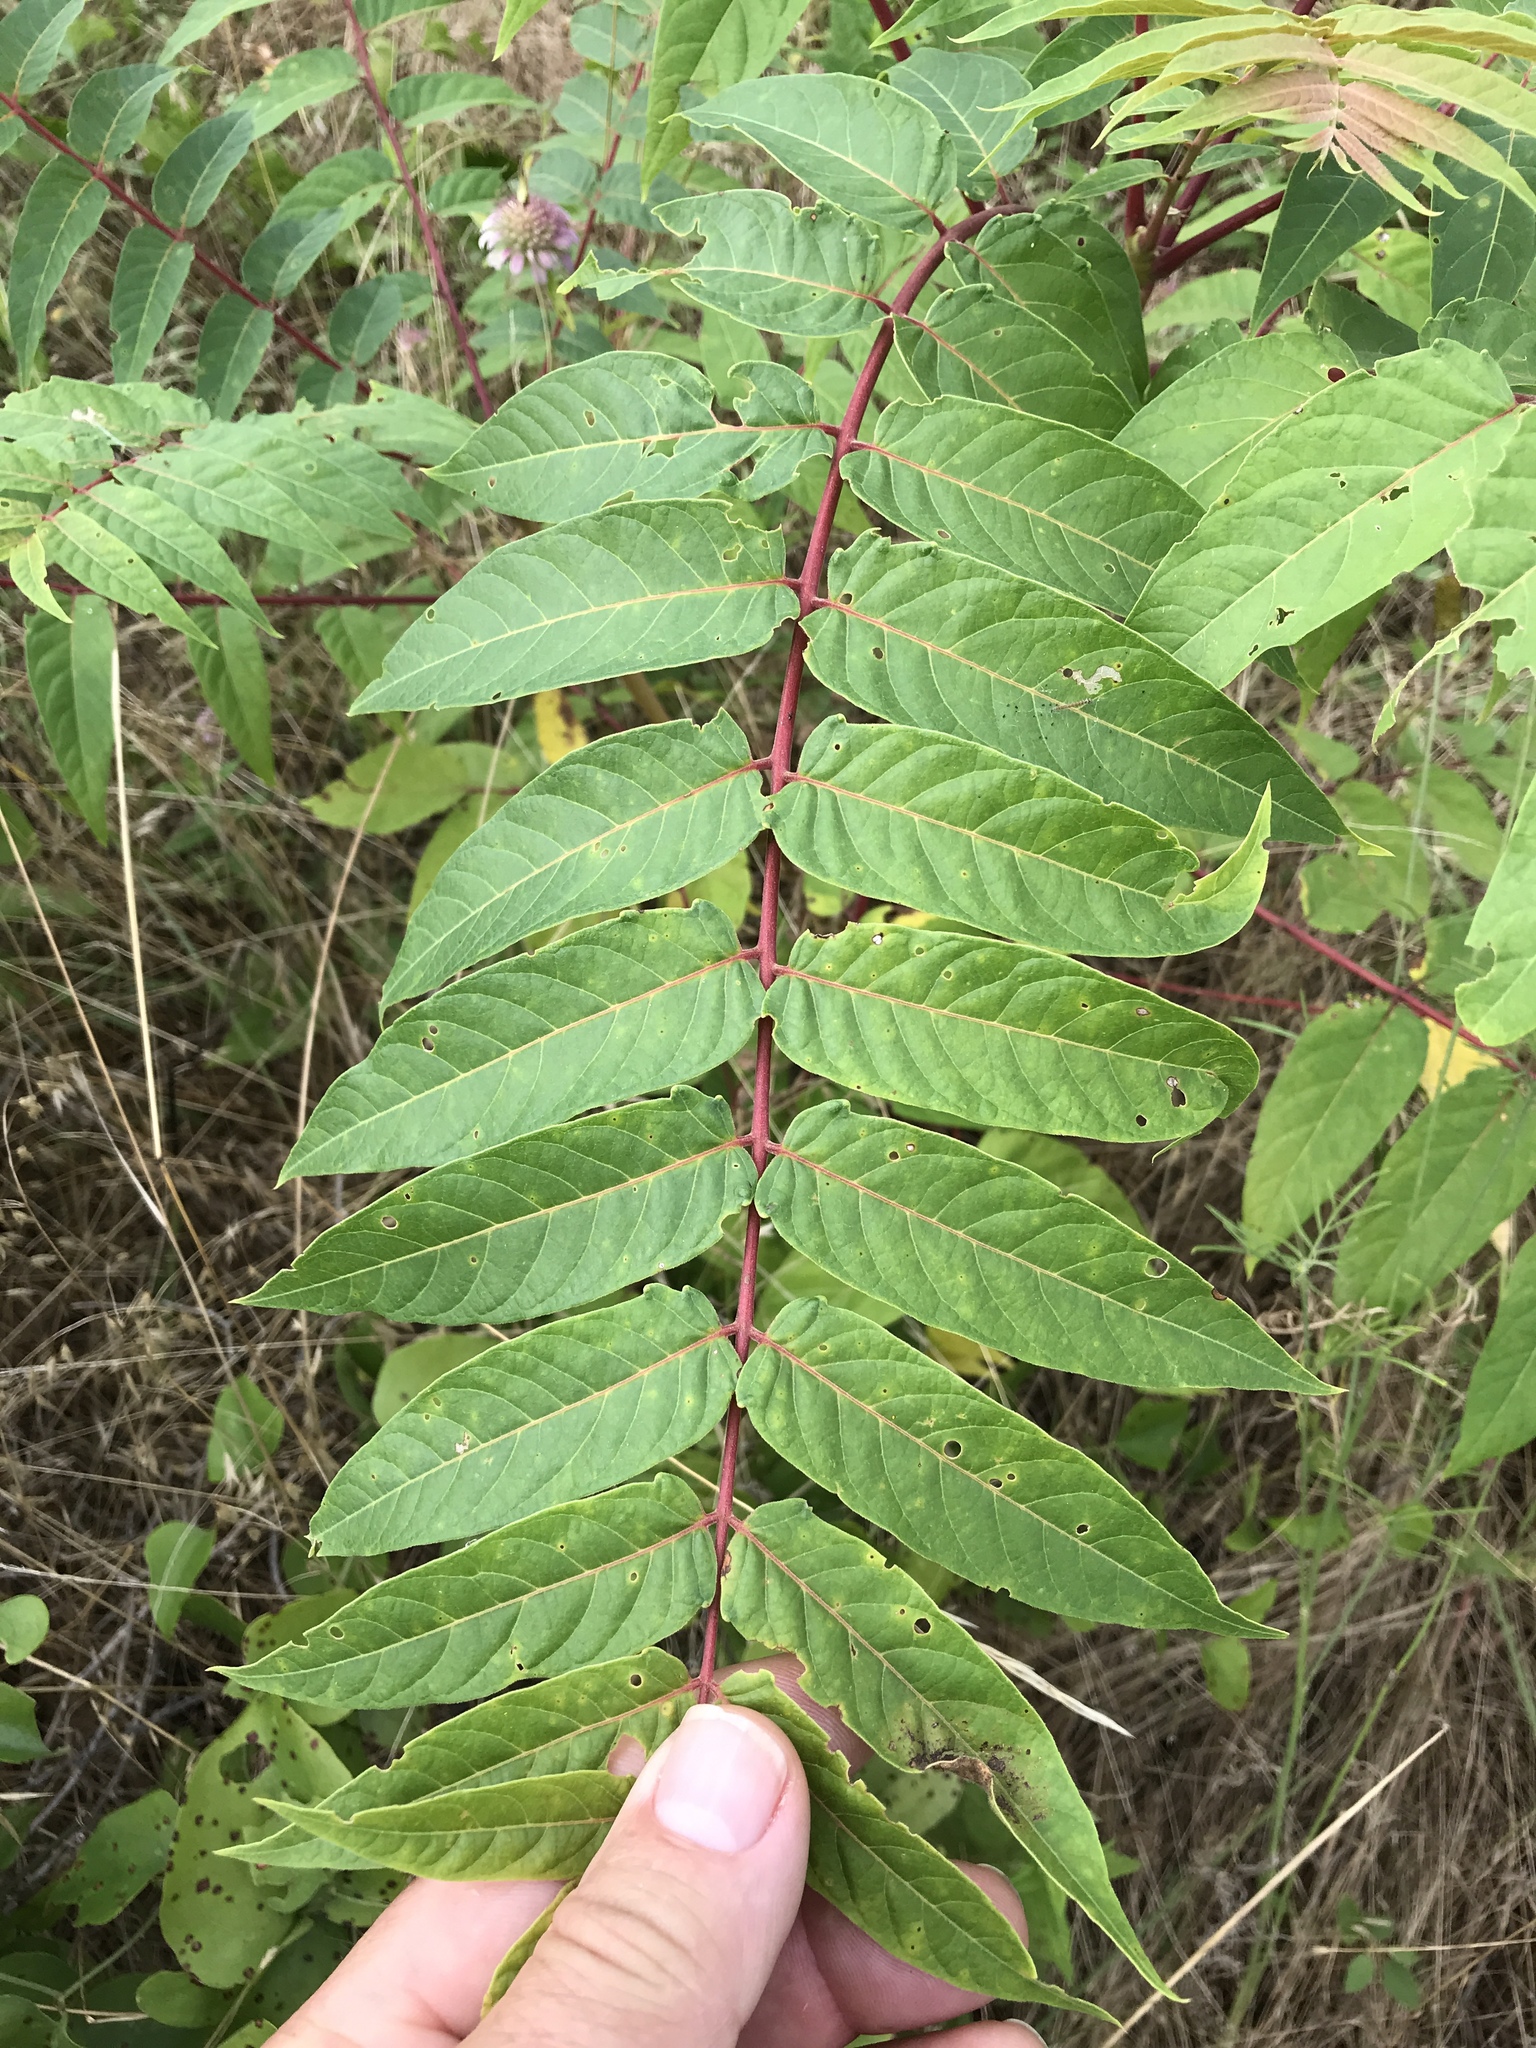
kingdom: Plantae
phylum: Tracheophyta
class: Magnoliopsida
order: Sapindales
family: Simaroubaceae
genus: Ailanthus
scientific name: Ailanthus altissima
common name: Tree-of-heaven
